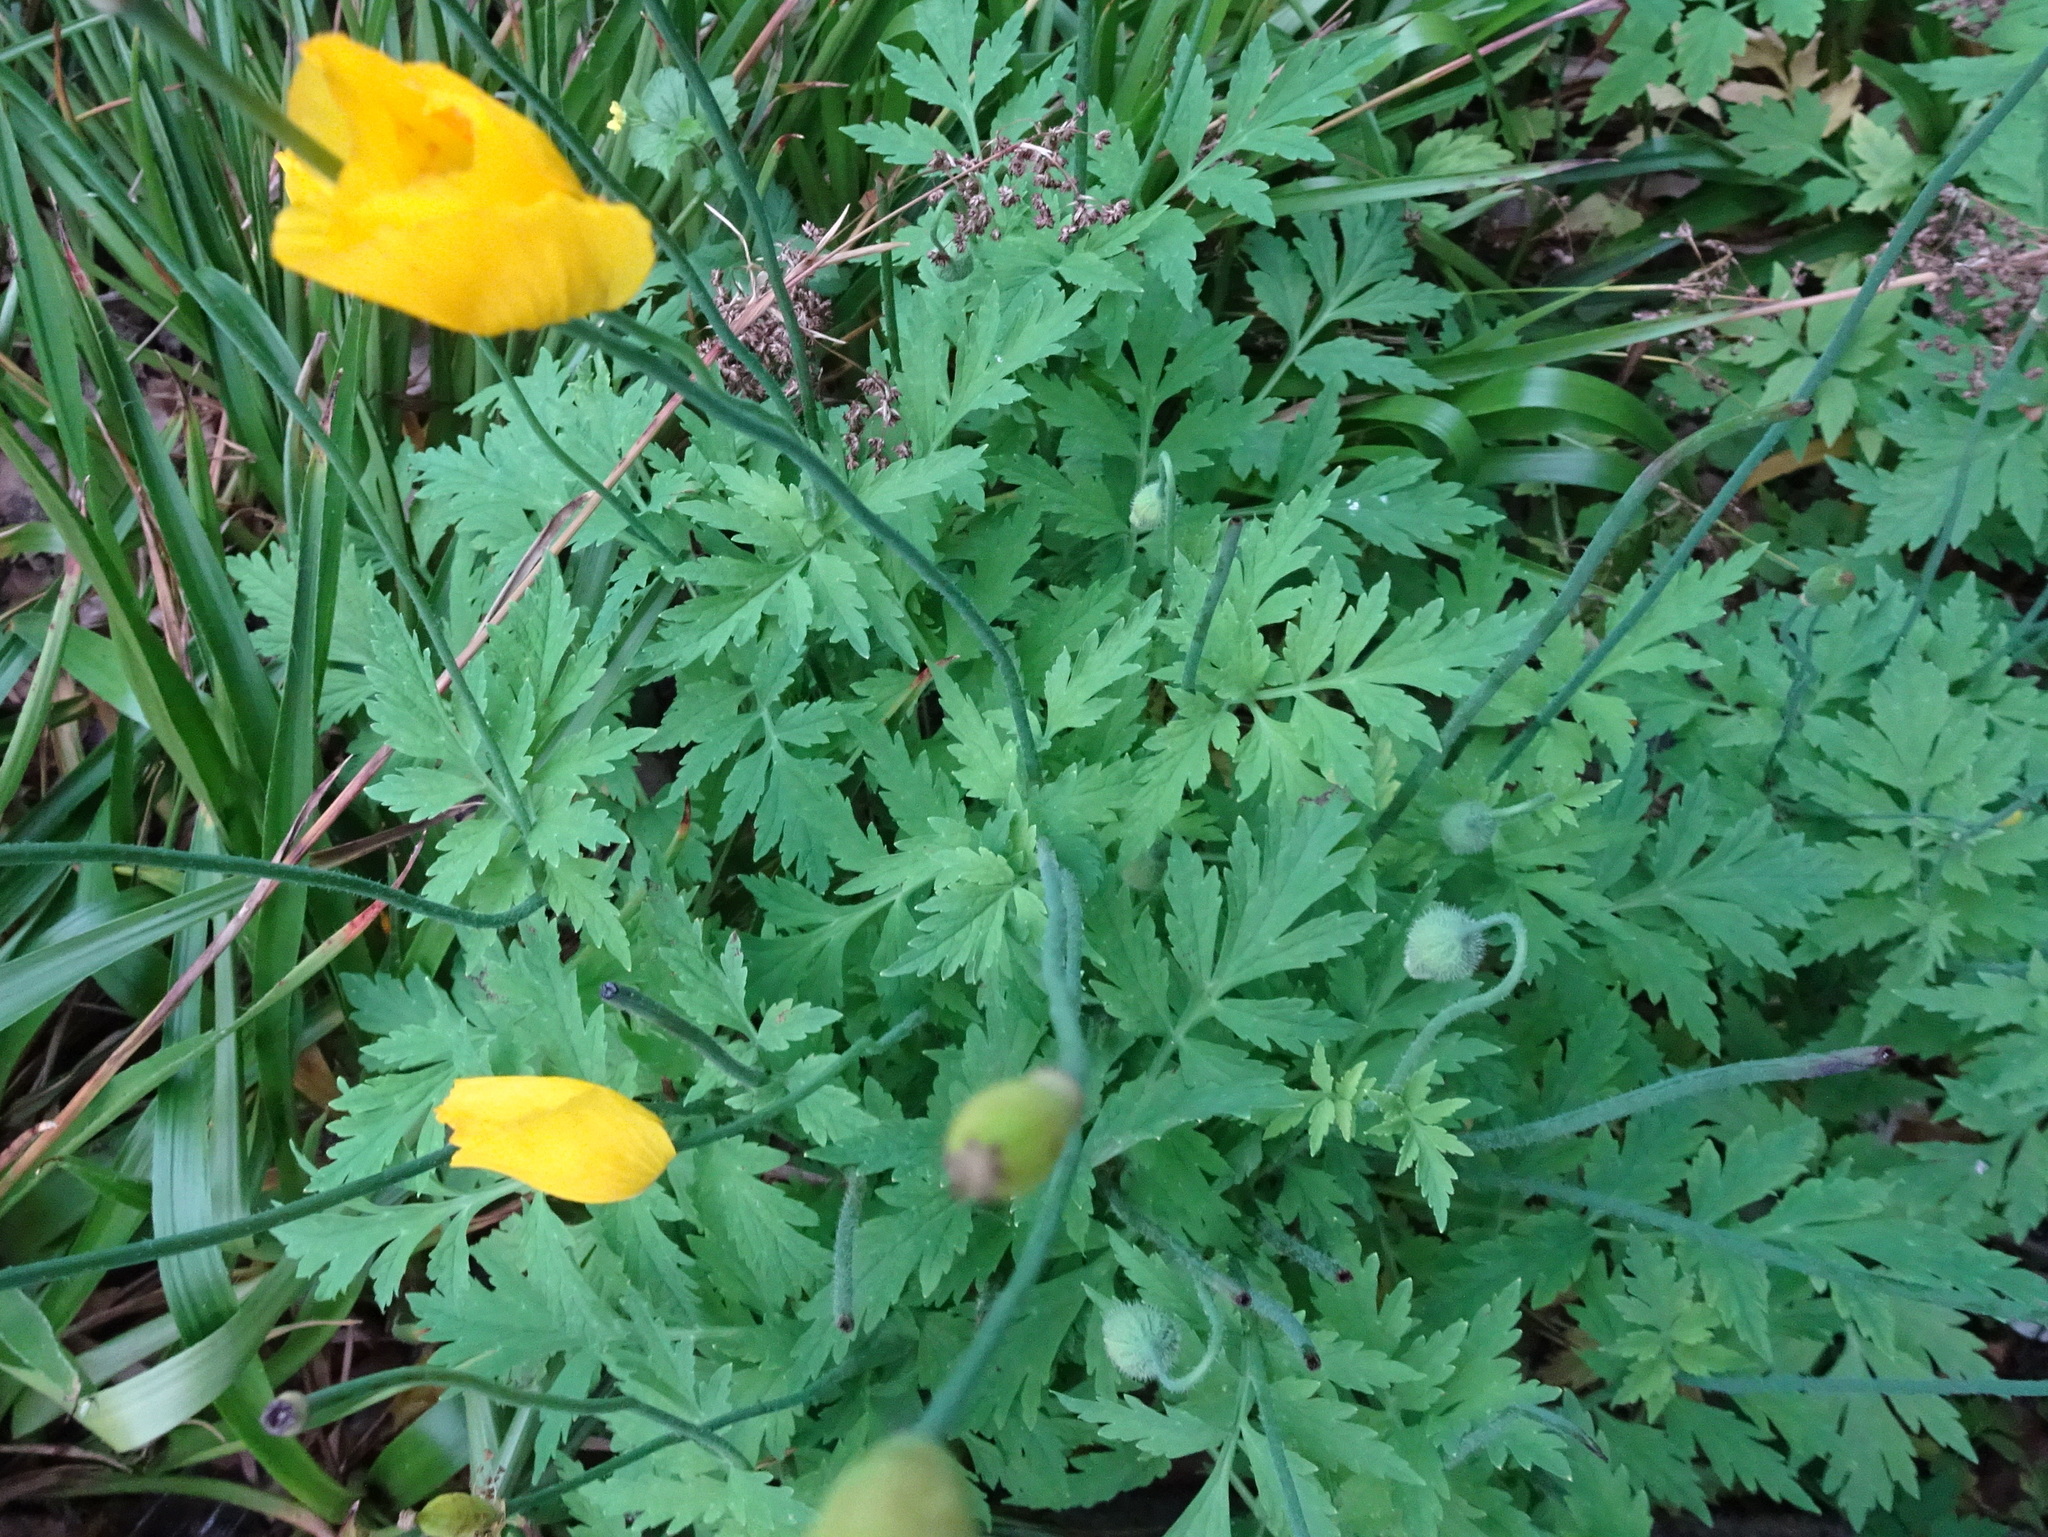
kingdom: Plantae
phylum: Tracheophyta
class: Magnoliopsida
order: Ranunculales
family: Papaveraceae
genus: Papaver
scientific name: Papaver cambricum
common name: Poppy
